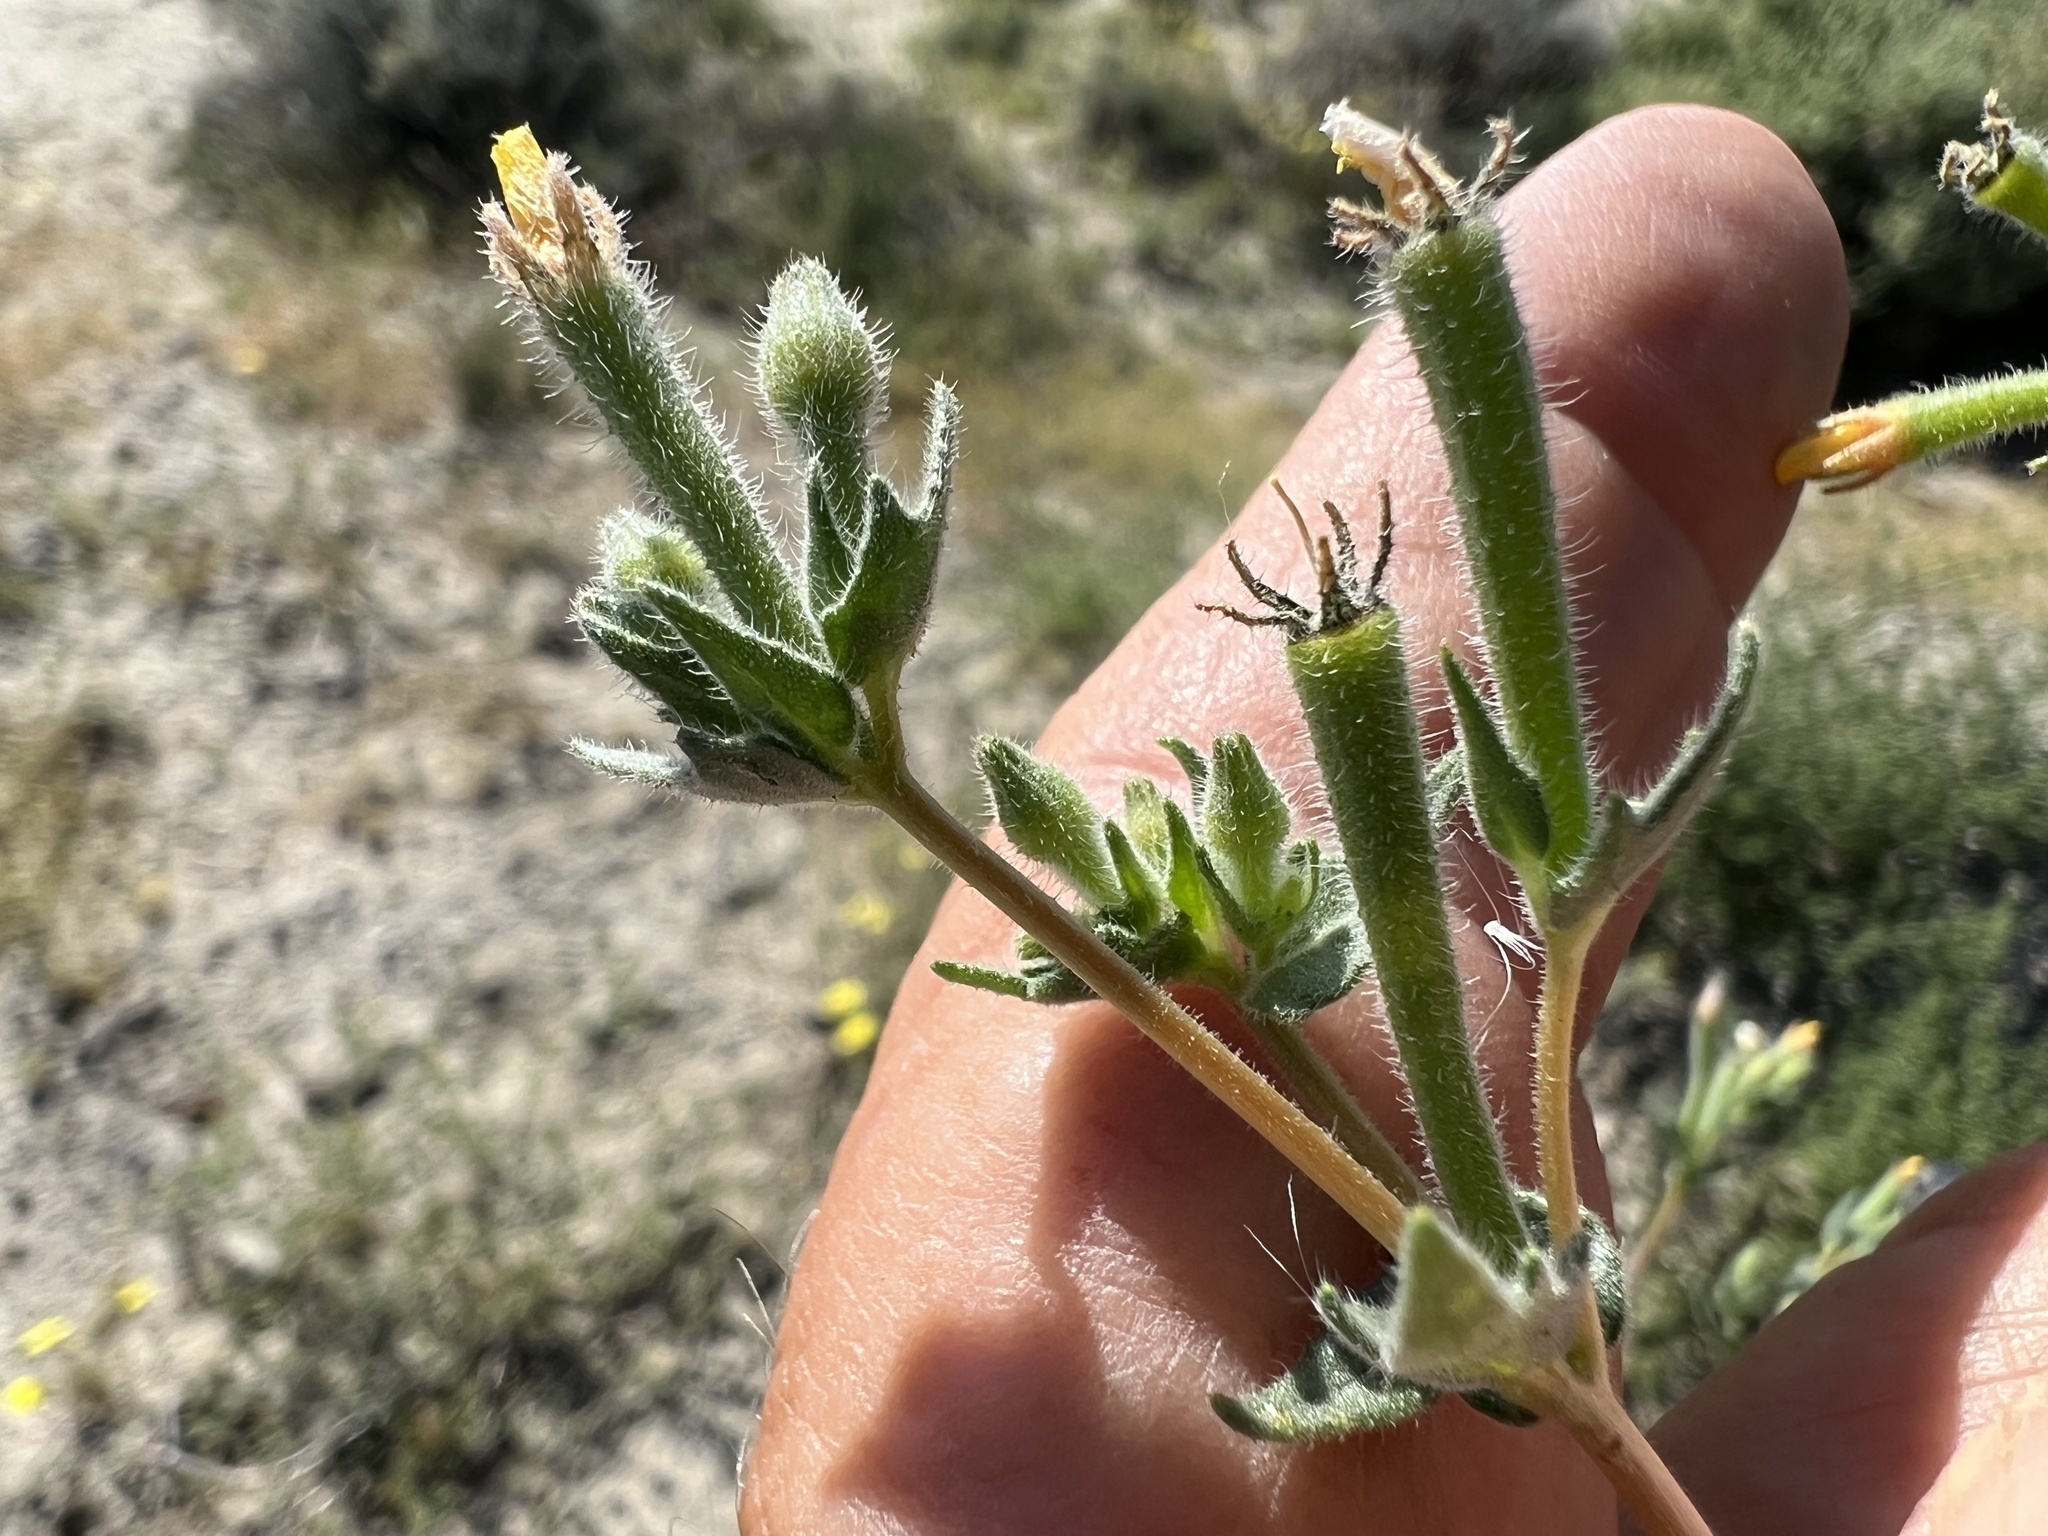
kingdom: Plantae
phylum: Tracheophyta
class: Magnoliopsida
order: Cornales
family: Loasaceae
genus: Mentzelia
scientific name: Mentzelia albicaulis
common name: White-stem blazingstar
